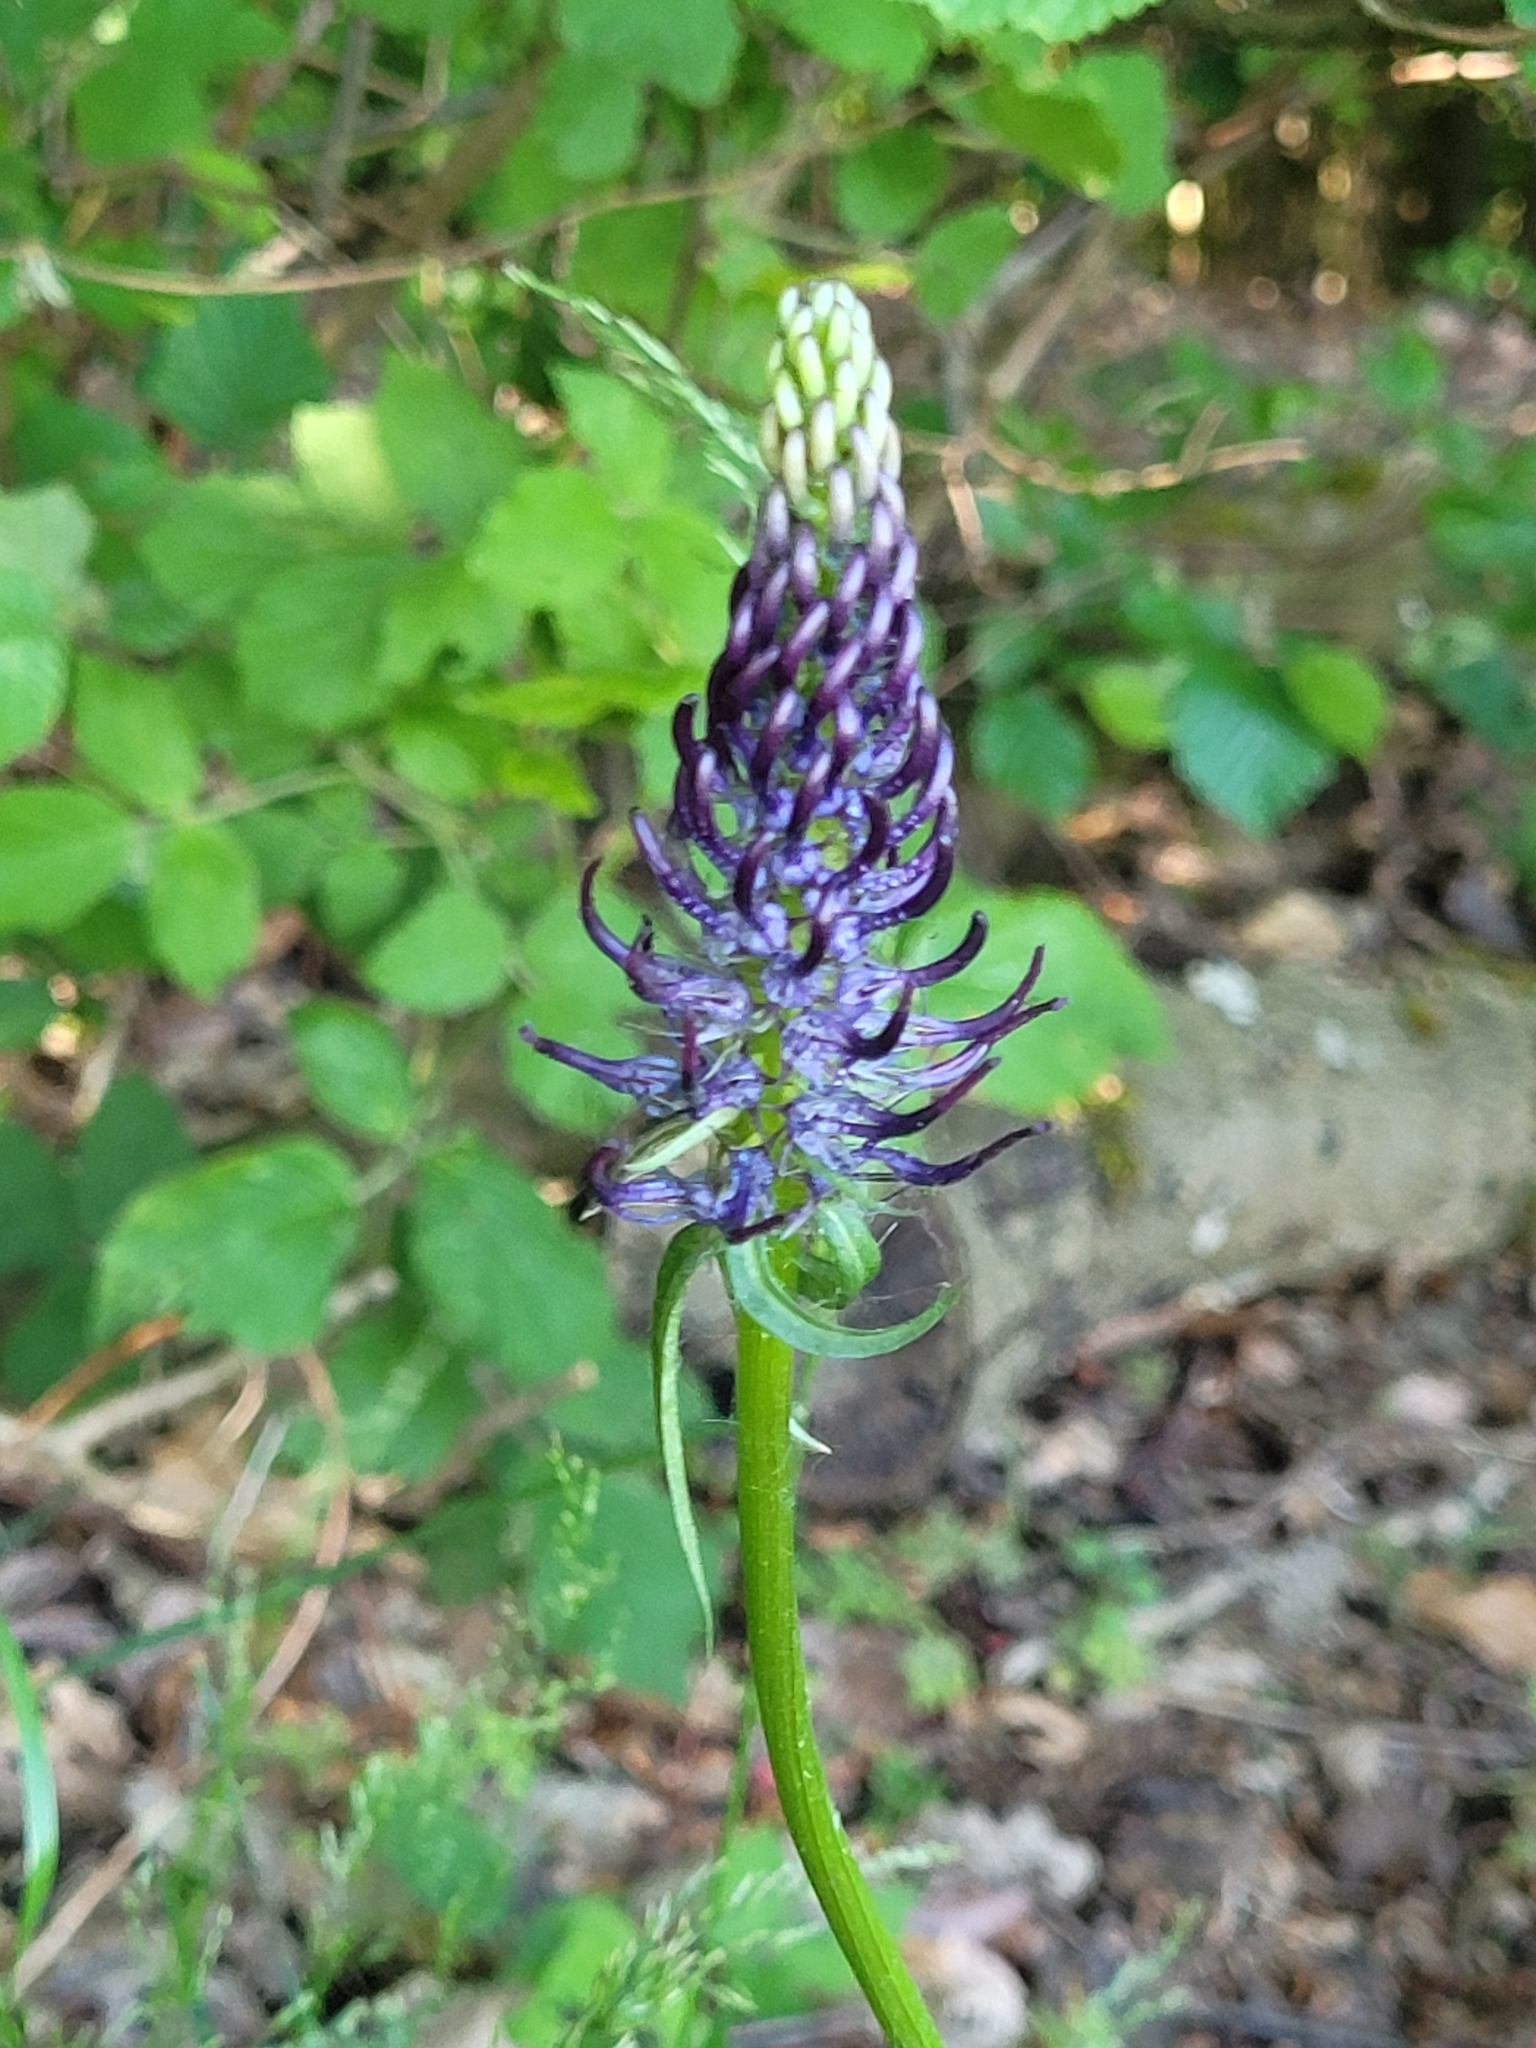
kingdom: Plantae
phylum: Tracheophyta
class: Magnoliopsida
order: Asterales
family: Campanulaceae
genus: Phyteuma
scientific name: Phyteuma nigrum
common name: Black rampion
